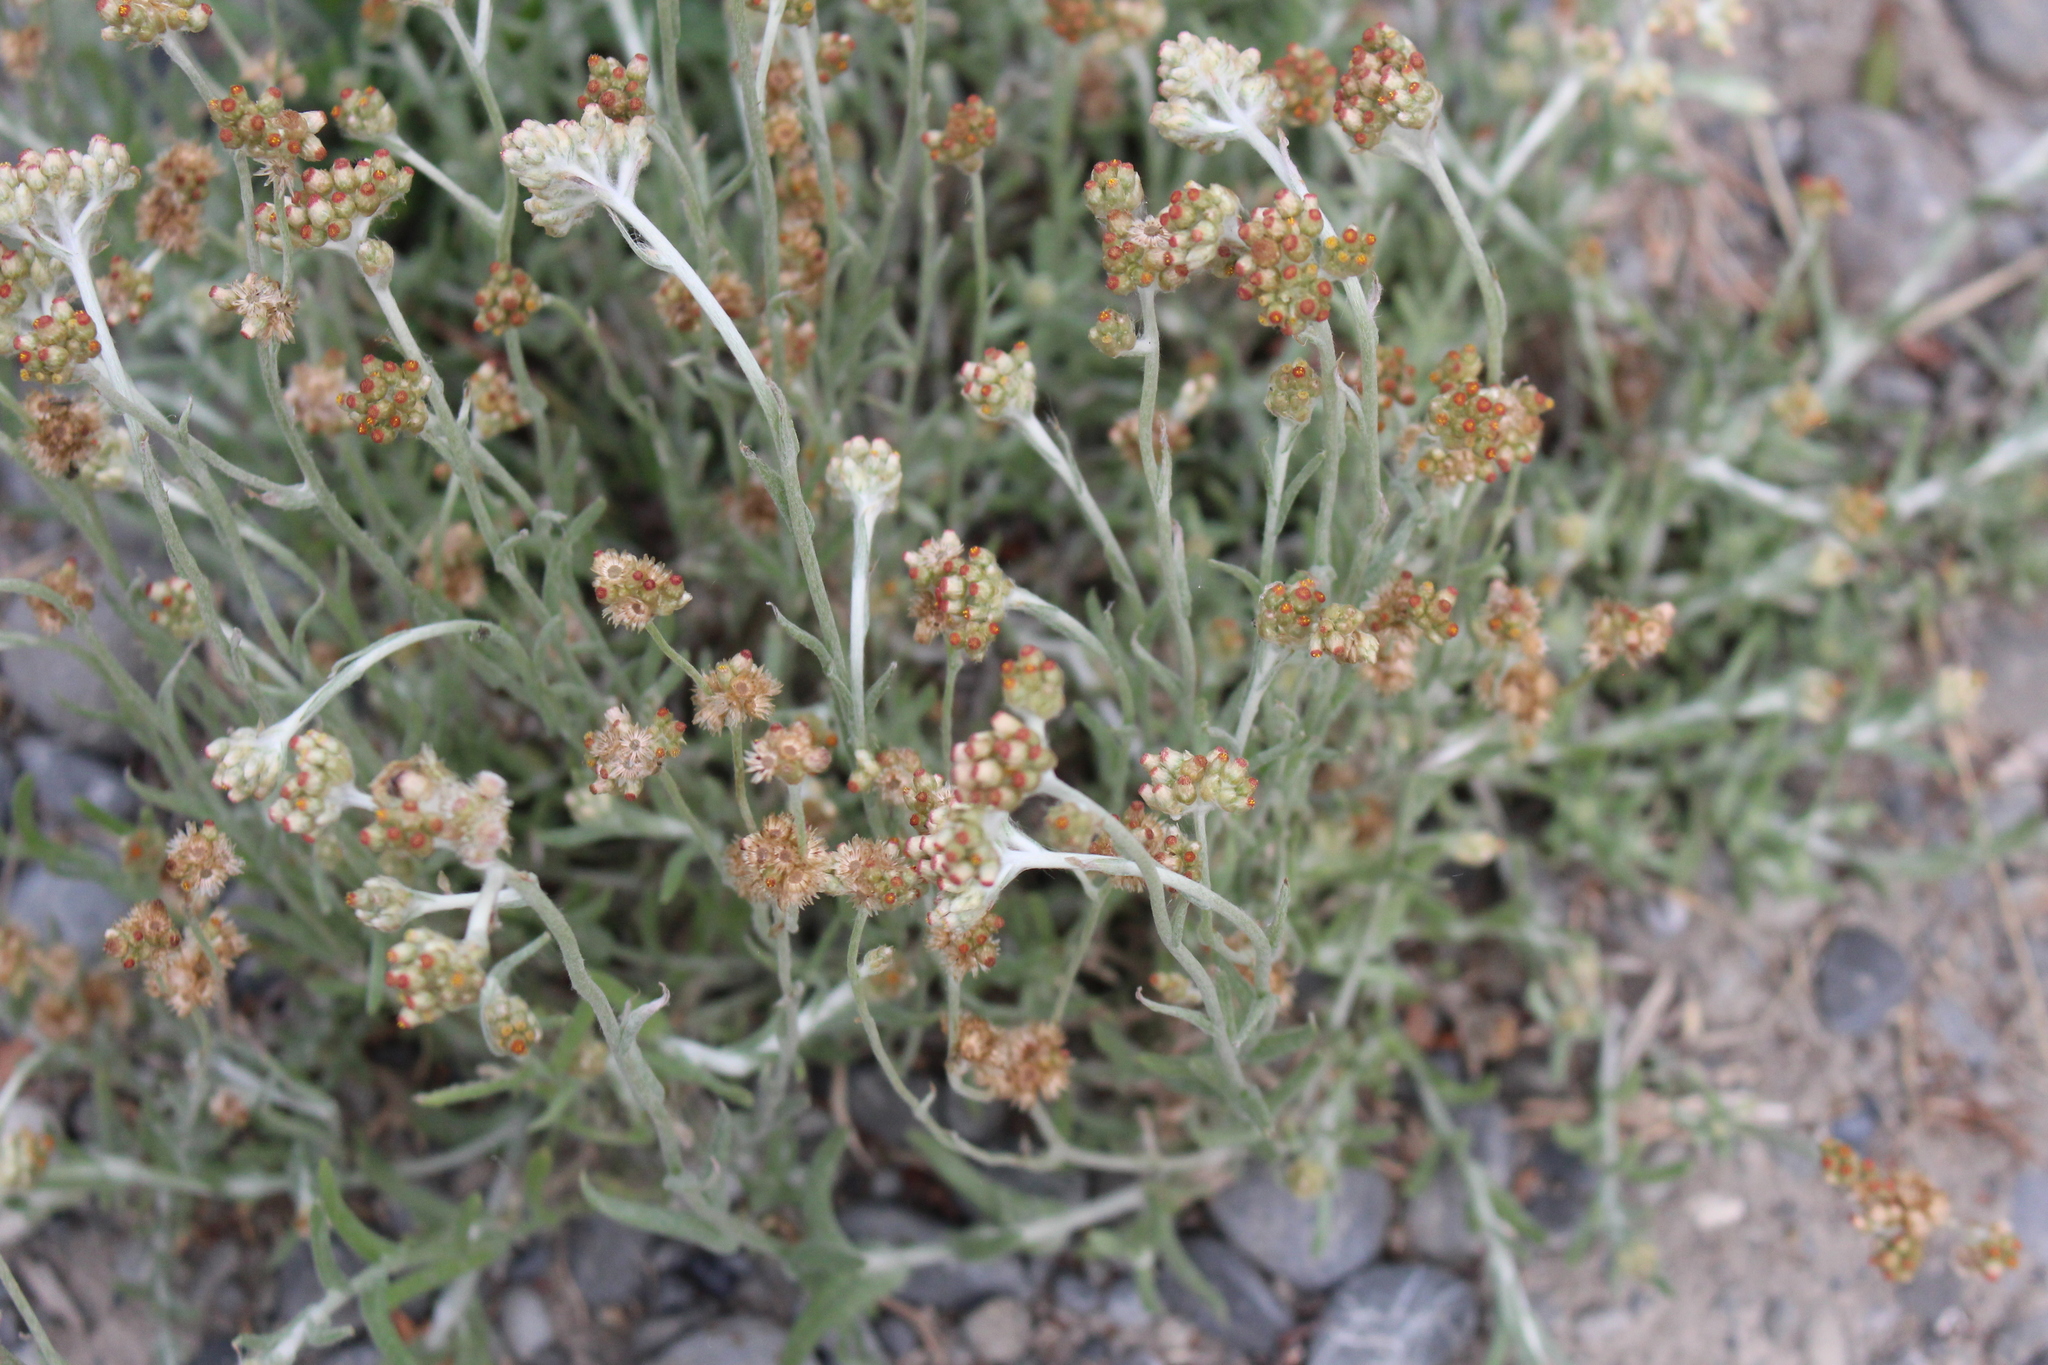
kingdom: Plantae
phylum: Tracheophyta
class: Magnoliopsida
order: Asterales
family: Asteraceae
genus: Helichrysum
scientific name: Helichrysum luteoalbum
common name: Daisy
